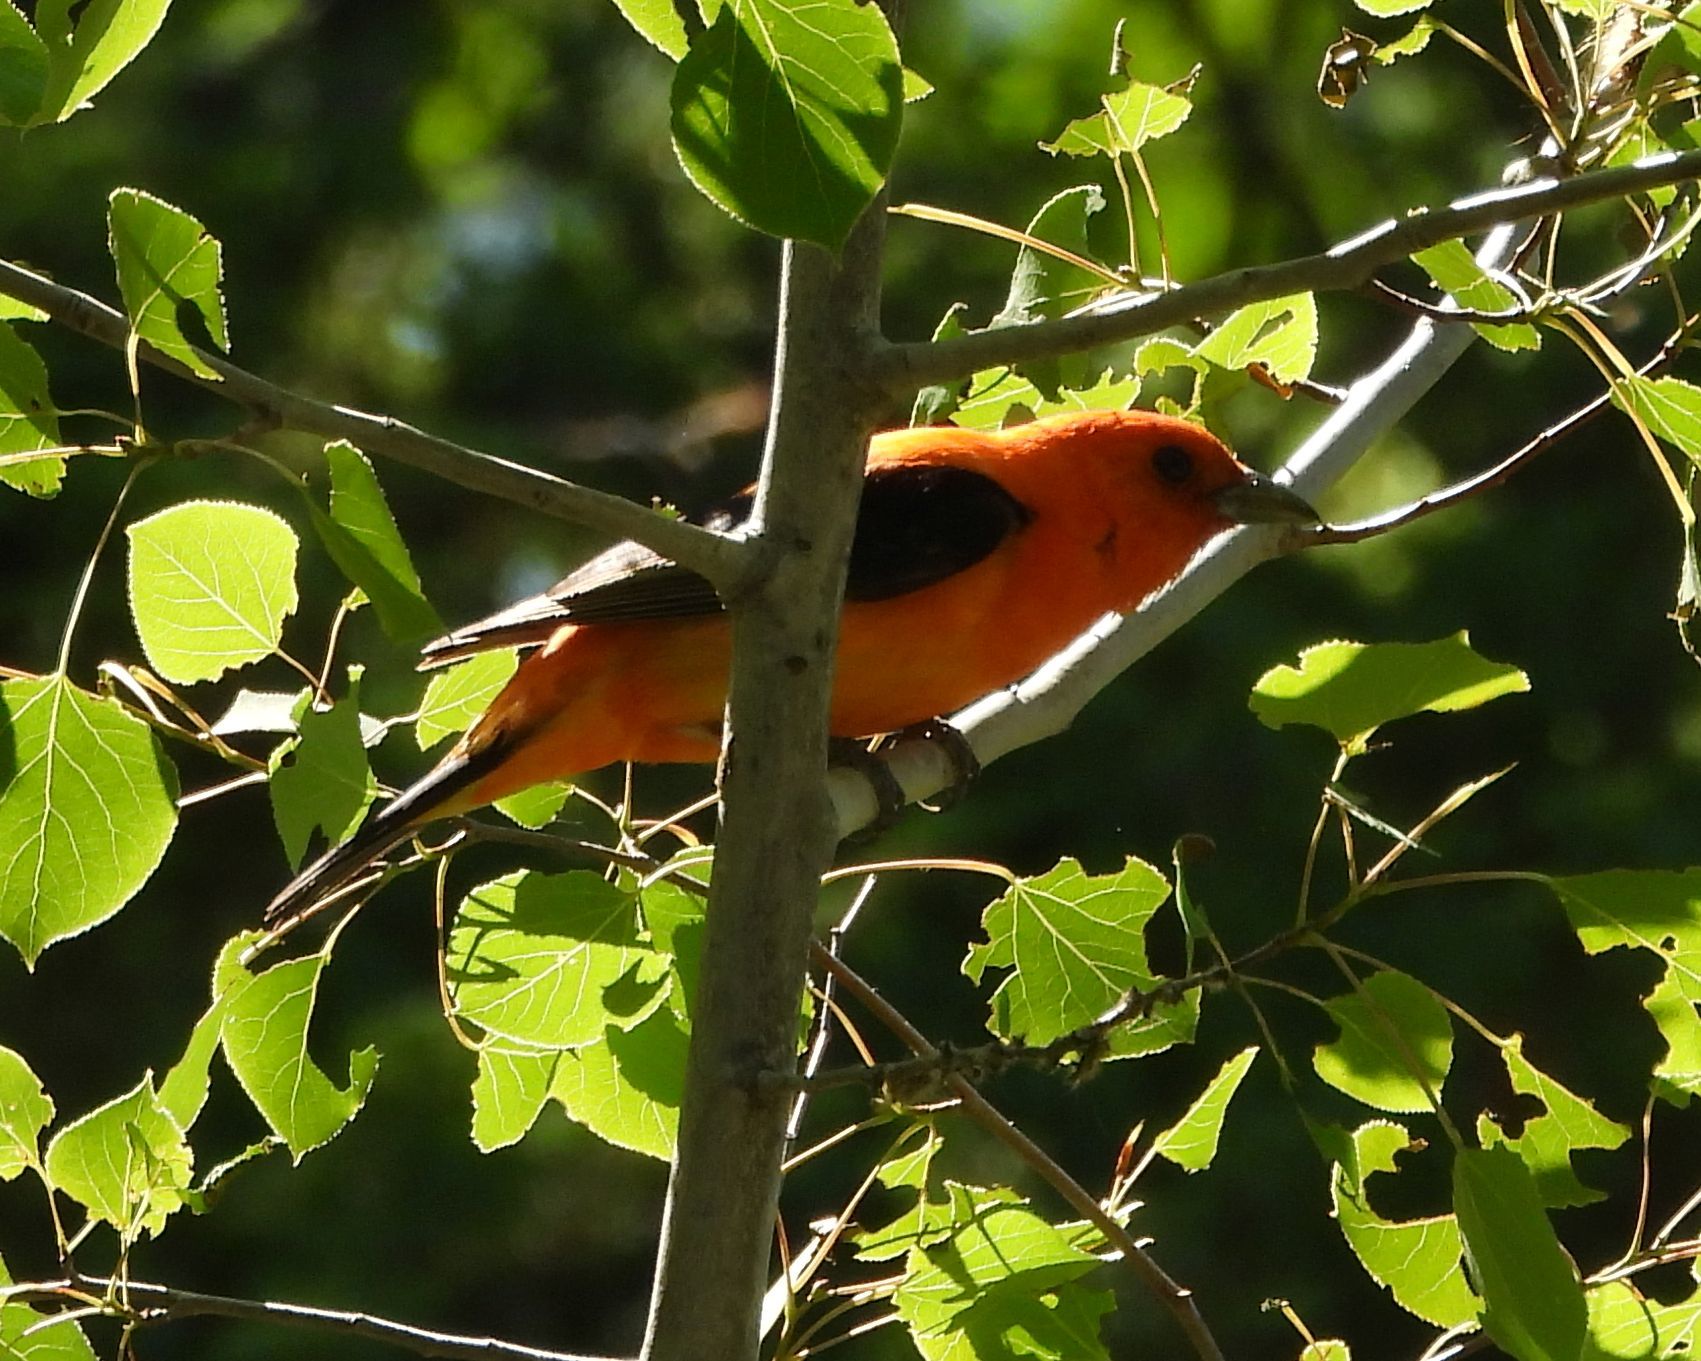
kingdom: Animalia
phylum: Chordata
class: Aves
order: Passeriformes
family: Cardinalidae
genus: Piranga
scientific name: Piranga olivacea
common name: Scarlet tanager
